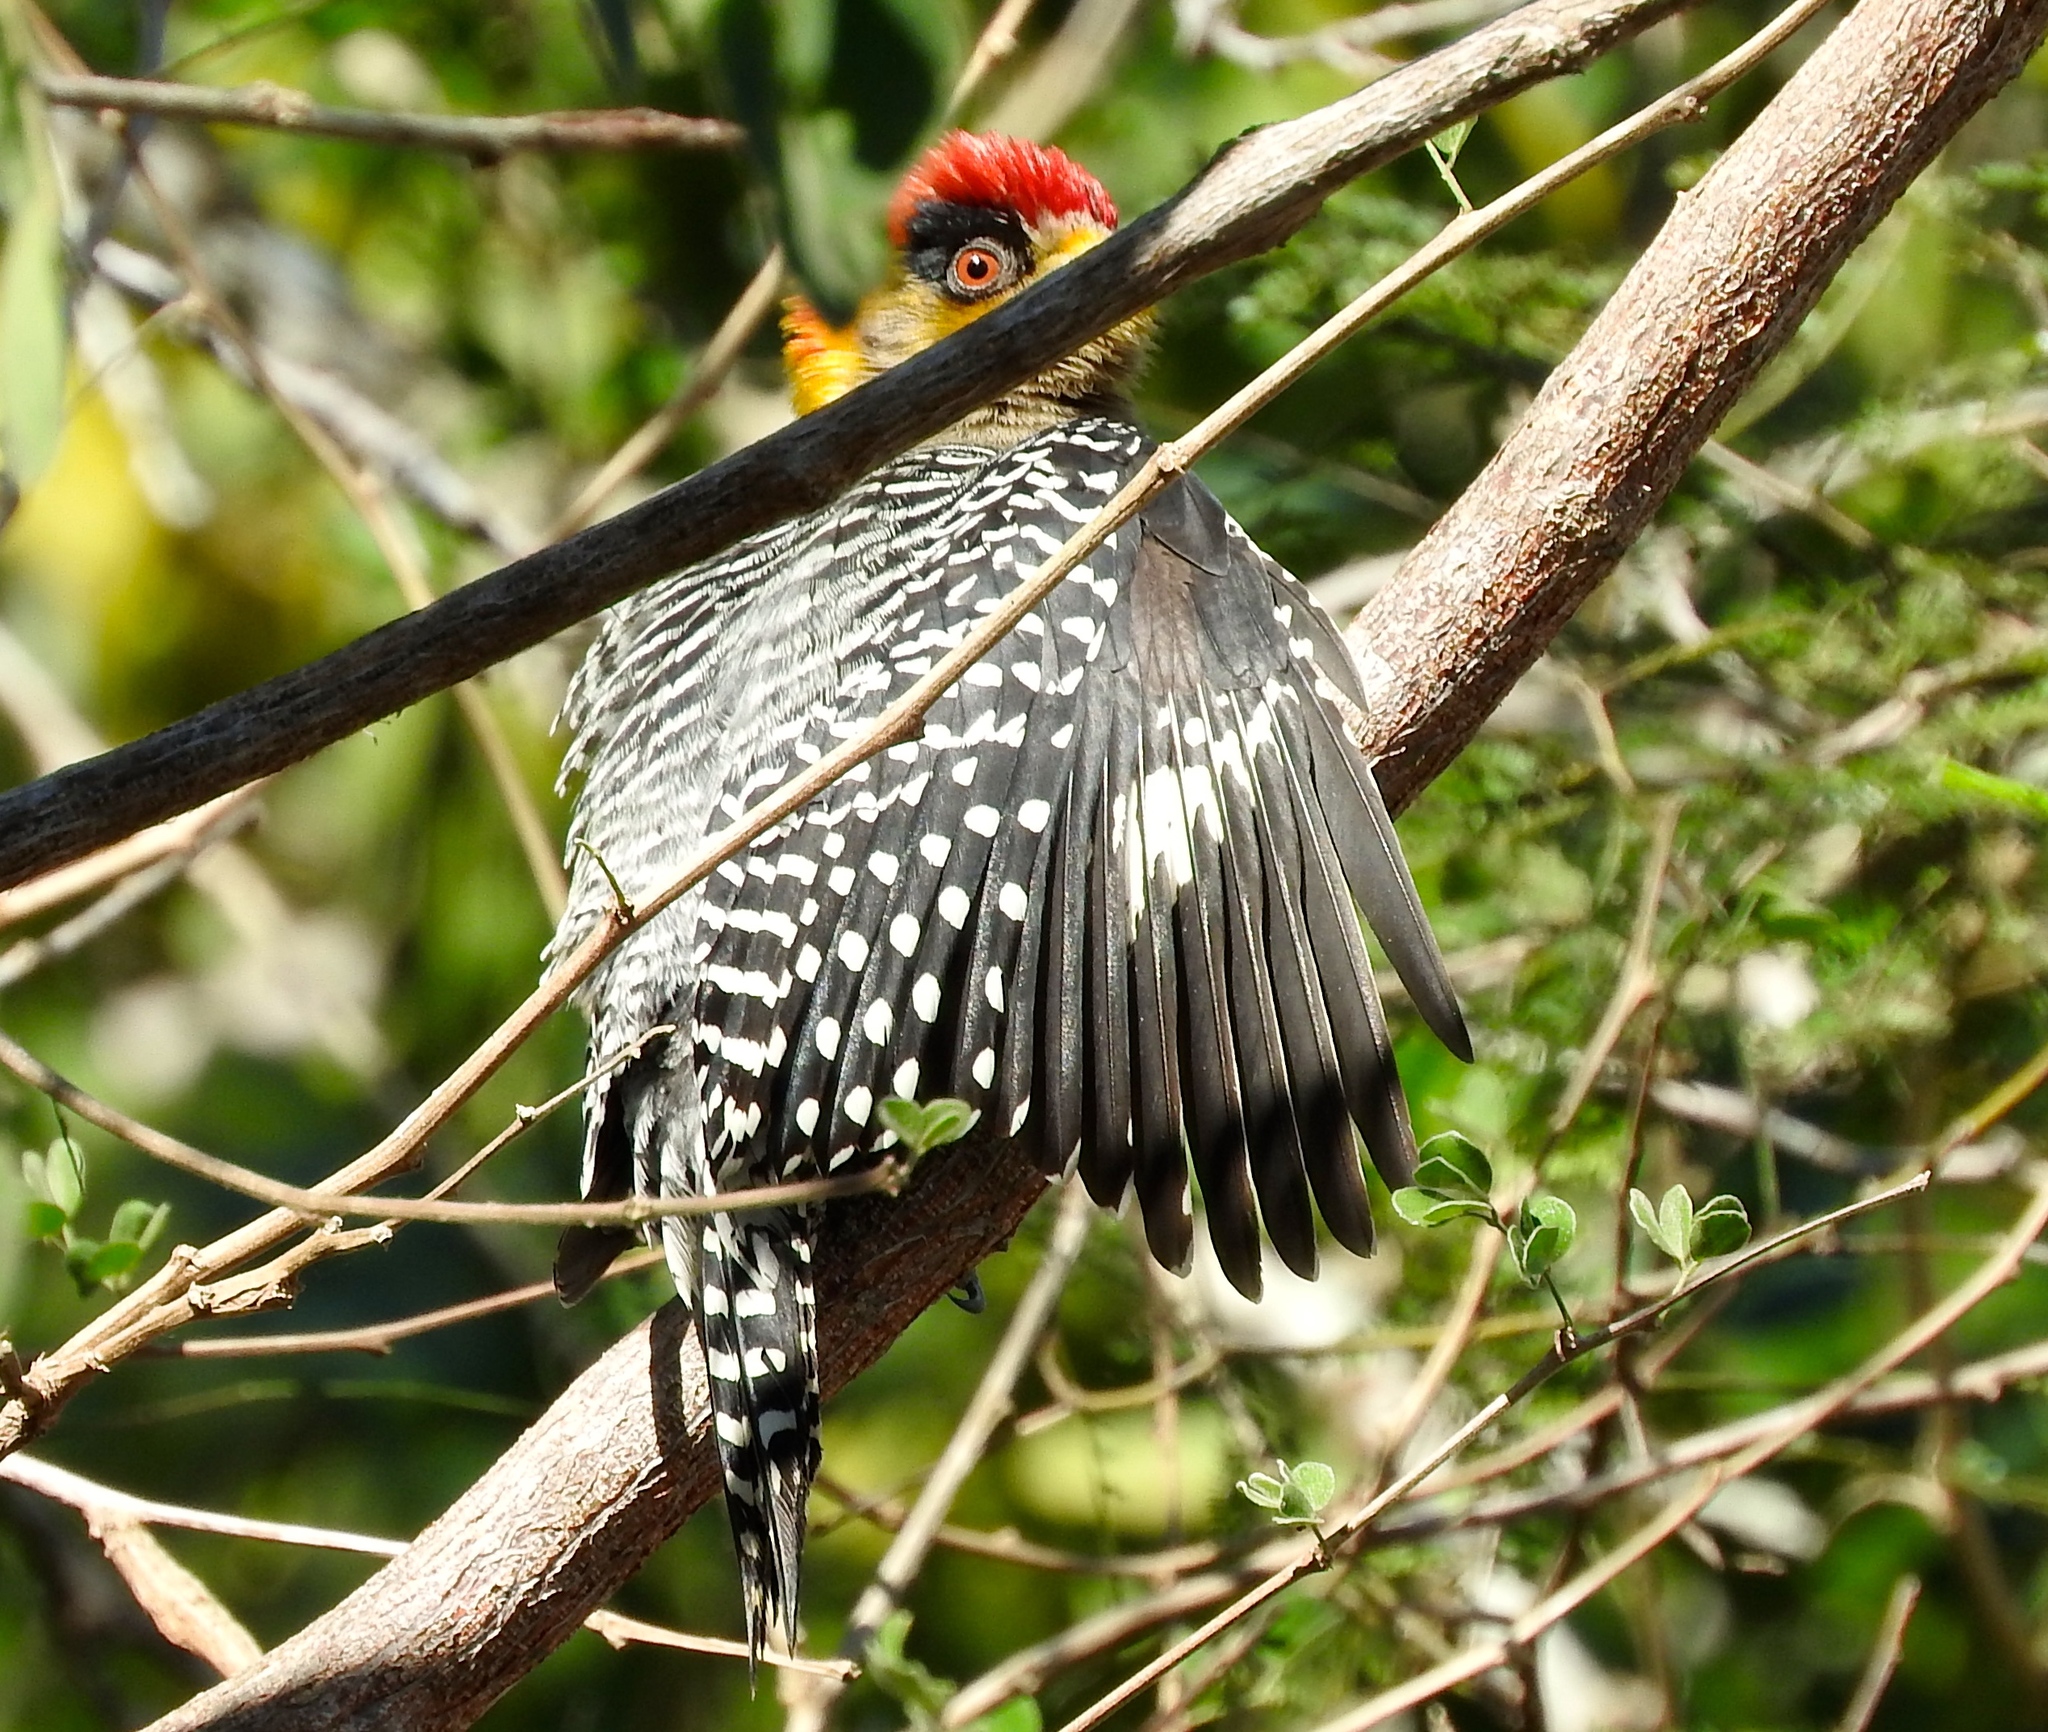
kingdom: Animalia
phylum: Chordata
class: Aves
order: Piciformes
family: Picidae
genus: Melanerpes
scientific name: Melanerpes chrysogenys
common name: Golden-cheeked woodpecker
